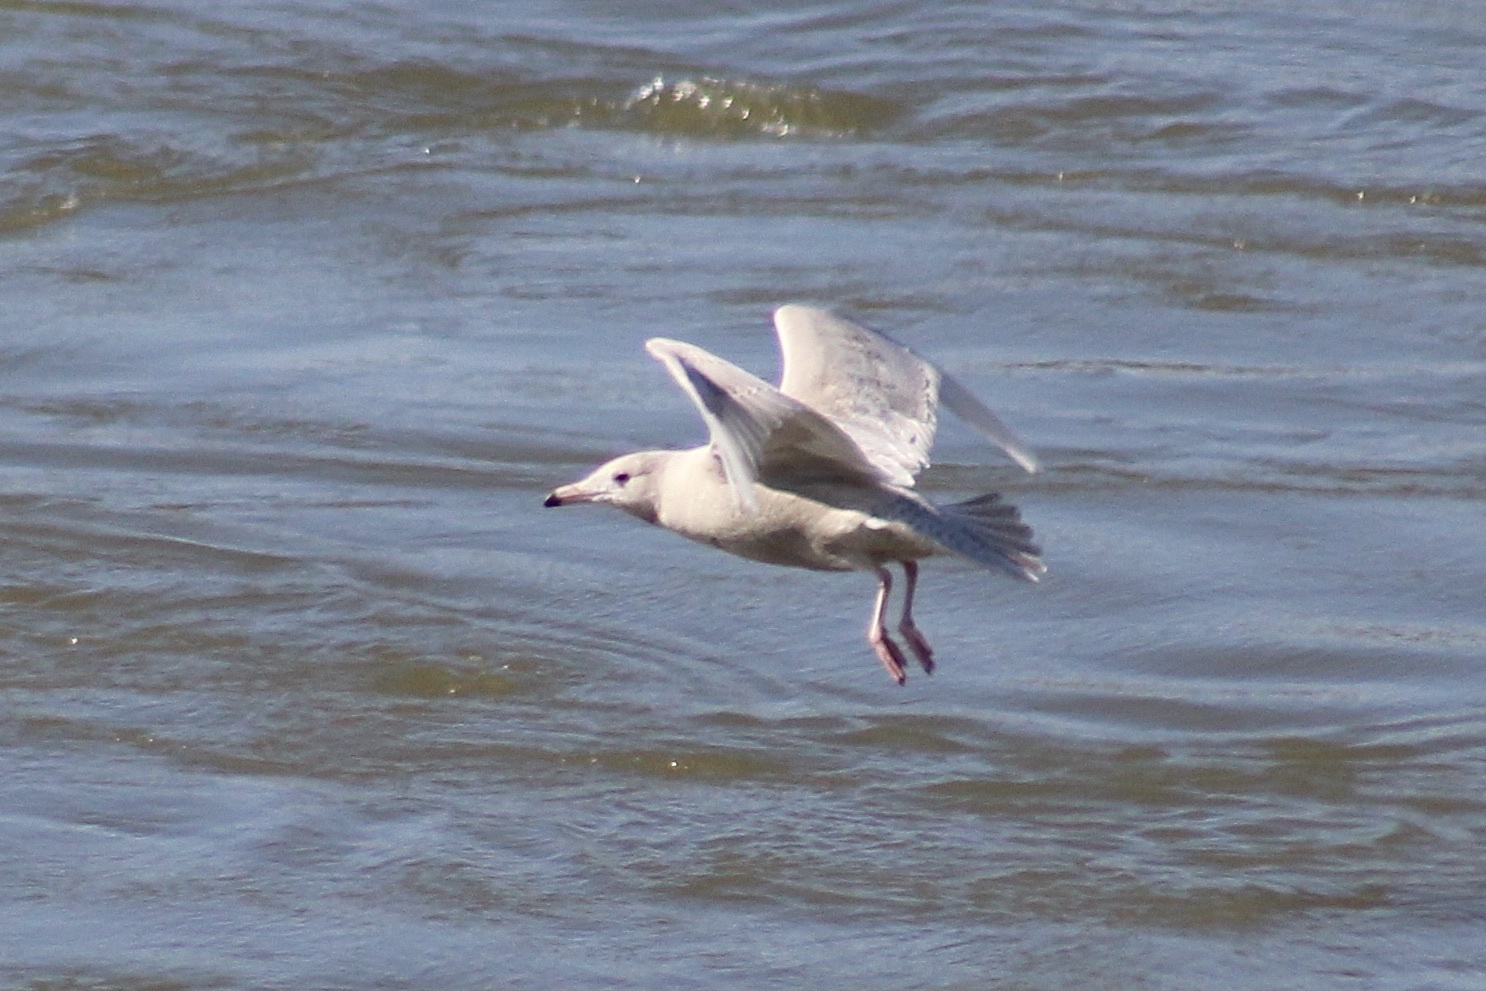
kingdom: Animalia
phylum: Chordata
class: Aves
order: Charadriiformes
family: Laridae
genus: Larus
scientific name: Larus hyperboreus
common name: Glaucous gull
